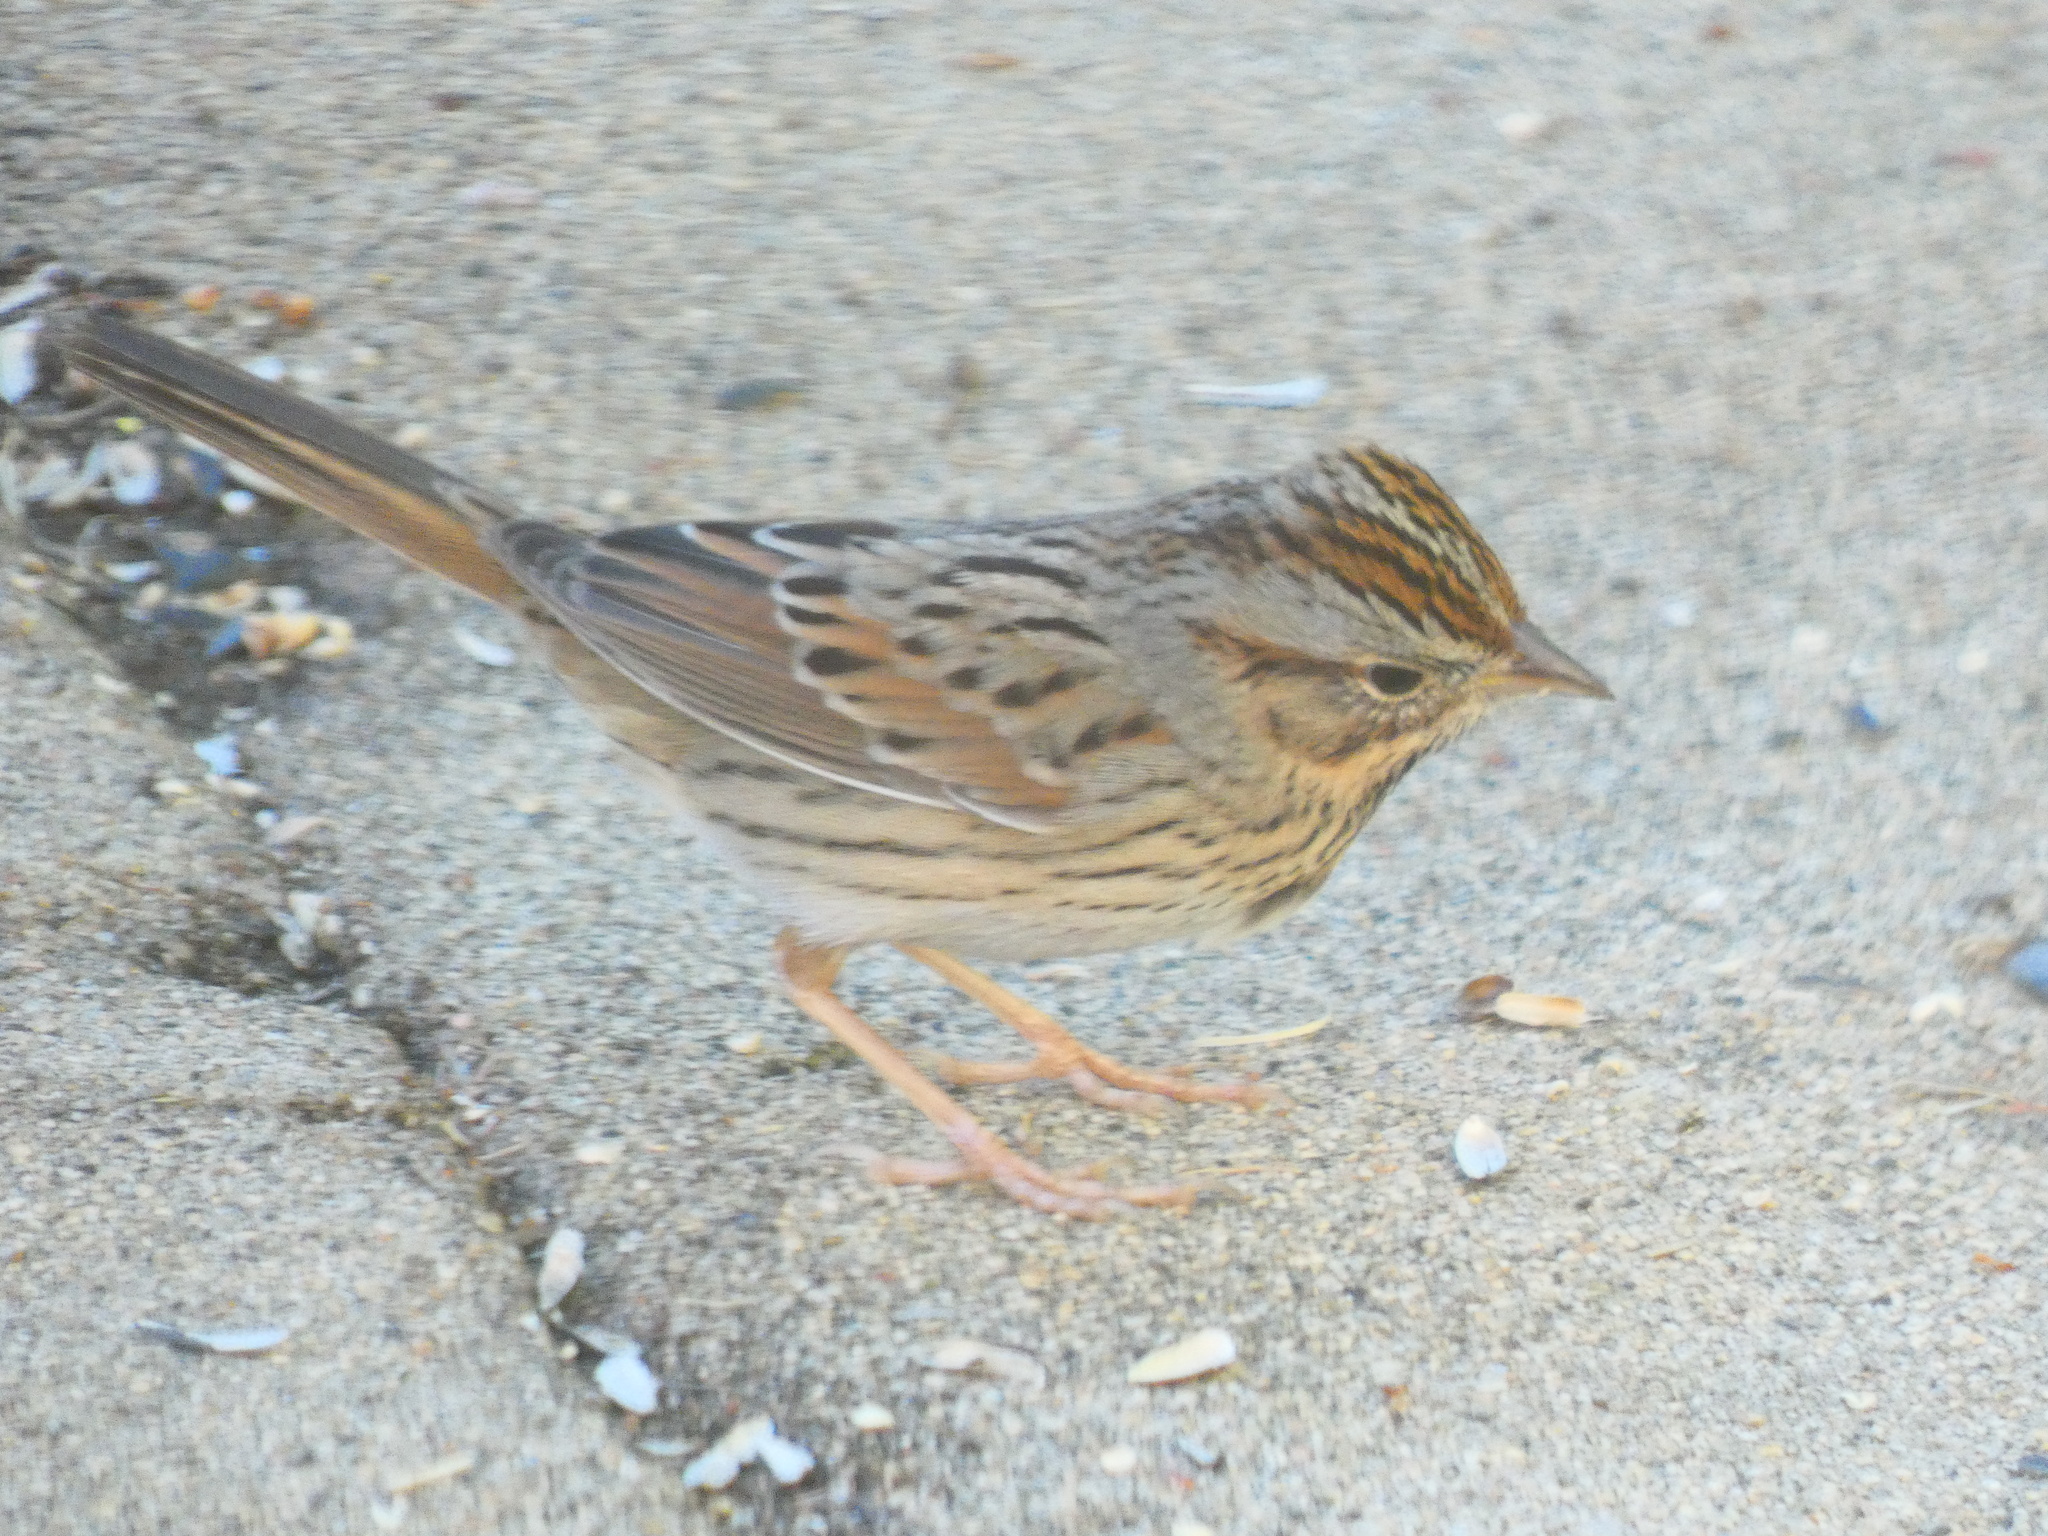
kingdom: Animalia
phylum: Chordata
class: Aves
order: Passeriformes
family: Passerellidae
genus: Melospiza
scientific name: Melospiza lincolnii
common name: Lincoln's sparrow
